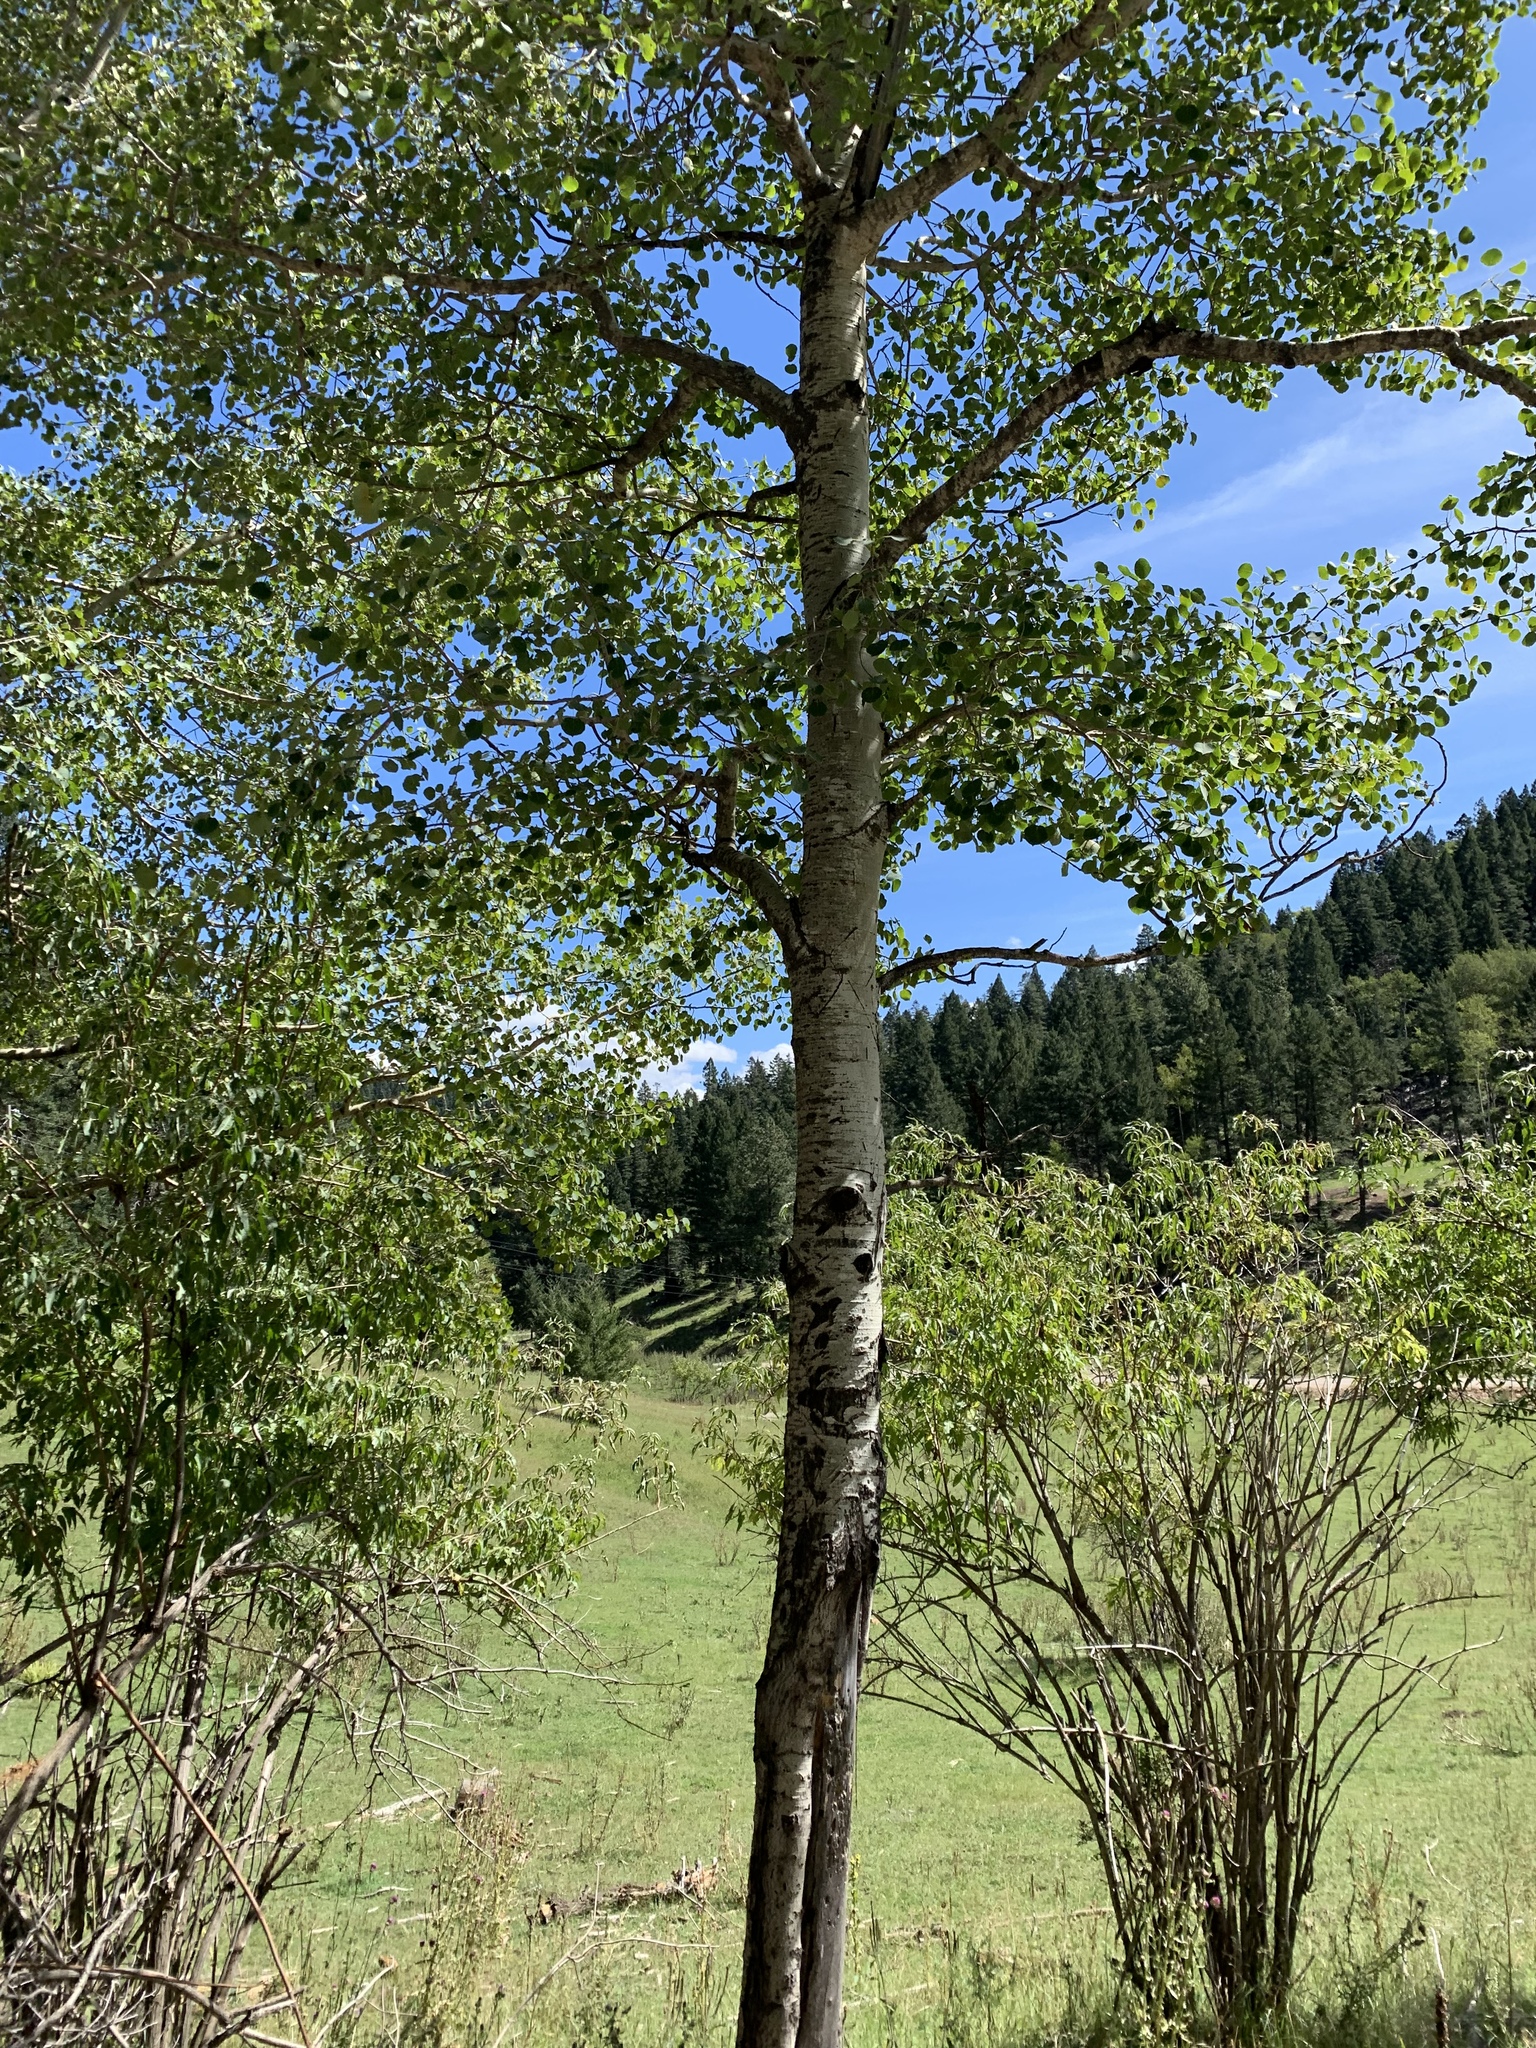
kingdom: Plantae
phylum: Tracheophyta
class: Magnoliopsida
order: Malpighiales
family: Salicaceae
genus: Populus
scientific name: Populus tremuloides
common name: Quaking aspen
